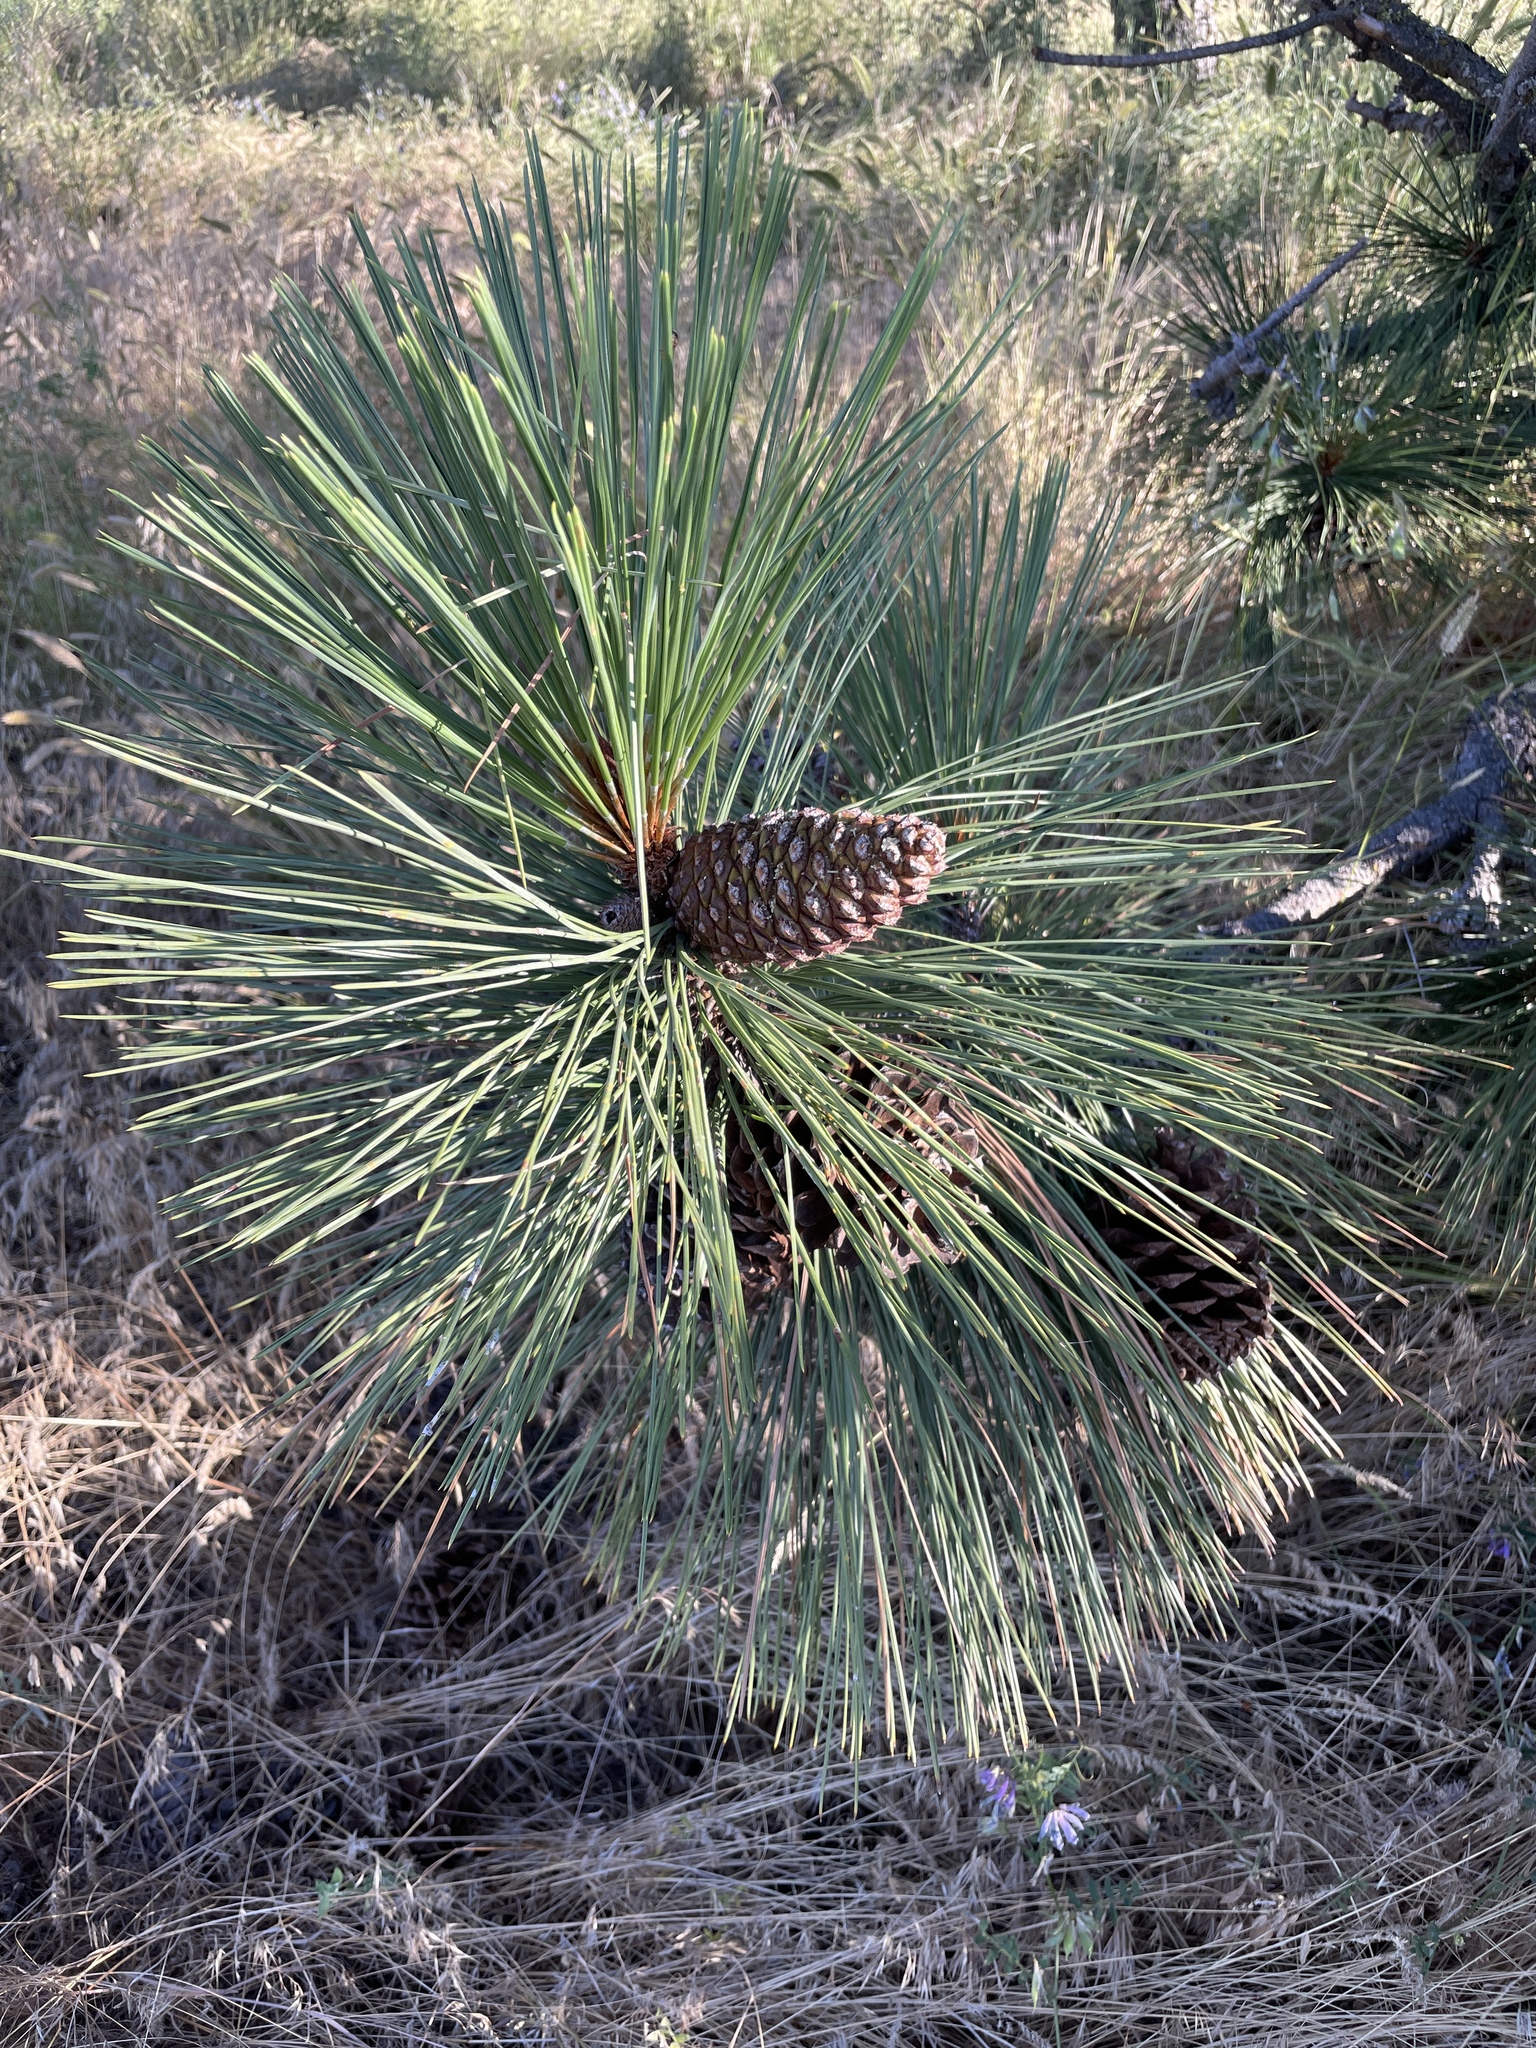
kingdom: Plantae
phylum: Tracheophyta
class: Pinopsida
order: Pinales
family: Pinaceae
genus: Pinus
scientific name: Pinus ponderosa
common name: Western yellow-pine
